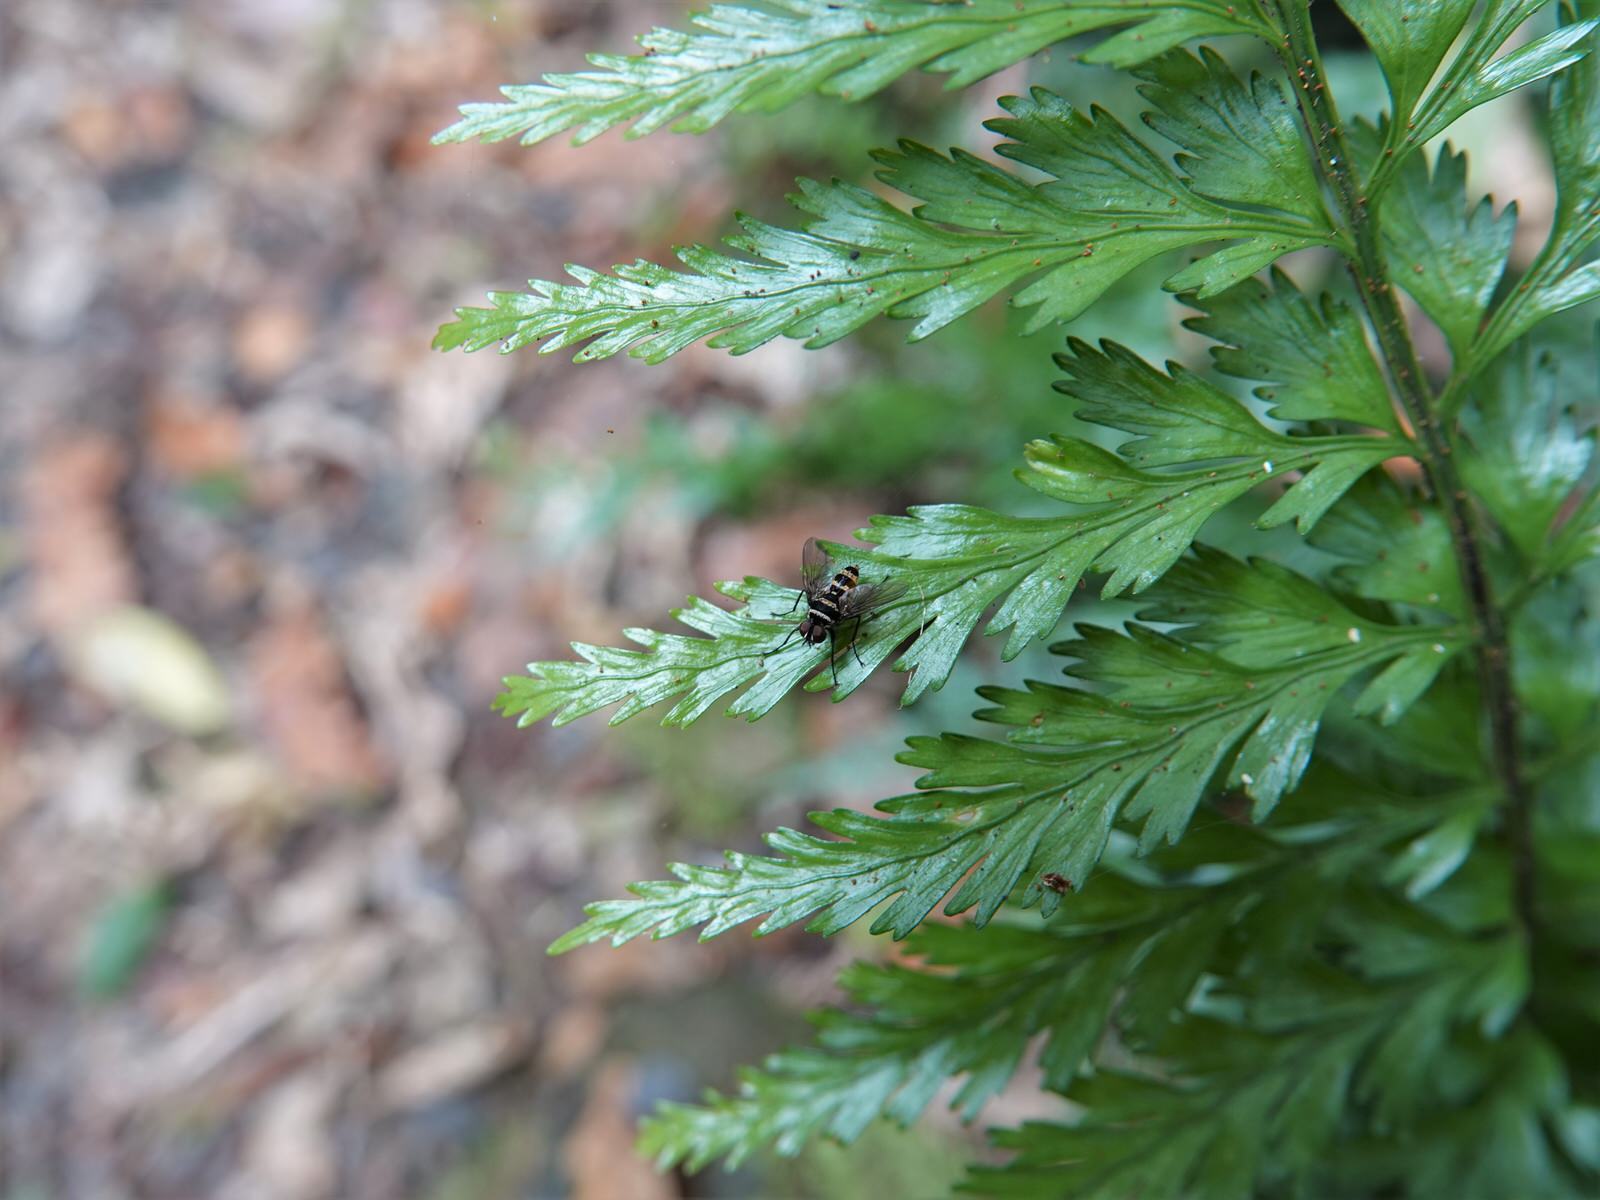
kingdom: Plantae
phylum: Tracheophyta
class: Polypodiopsida
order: Polypodiales
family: Aspleniaceae
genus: Asplenium
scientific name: Asplenium lamprophyllum
